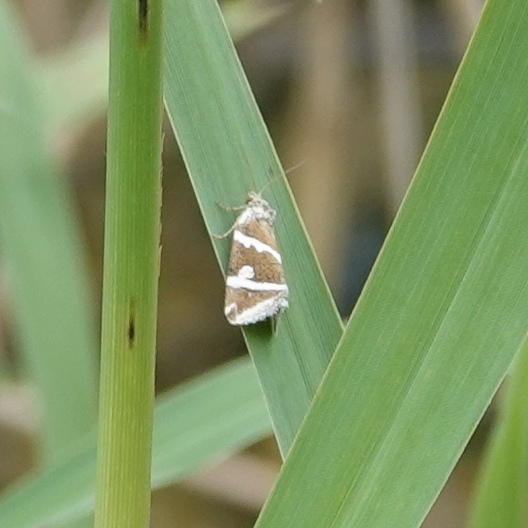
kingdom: Animalia
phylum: Arthropoda
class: Insecta
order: Lepidoptera
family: Noctuidae
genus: Deltote
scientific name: Deltote bankiana
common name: Silver barred
